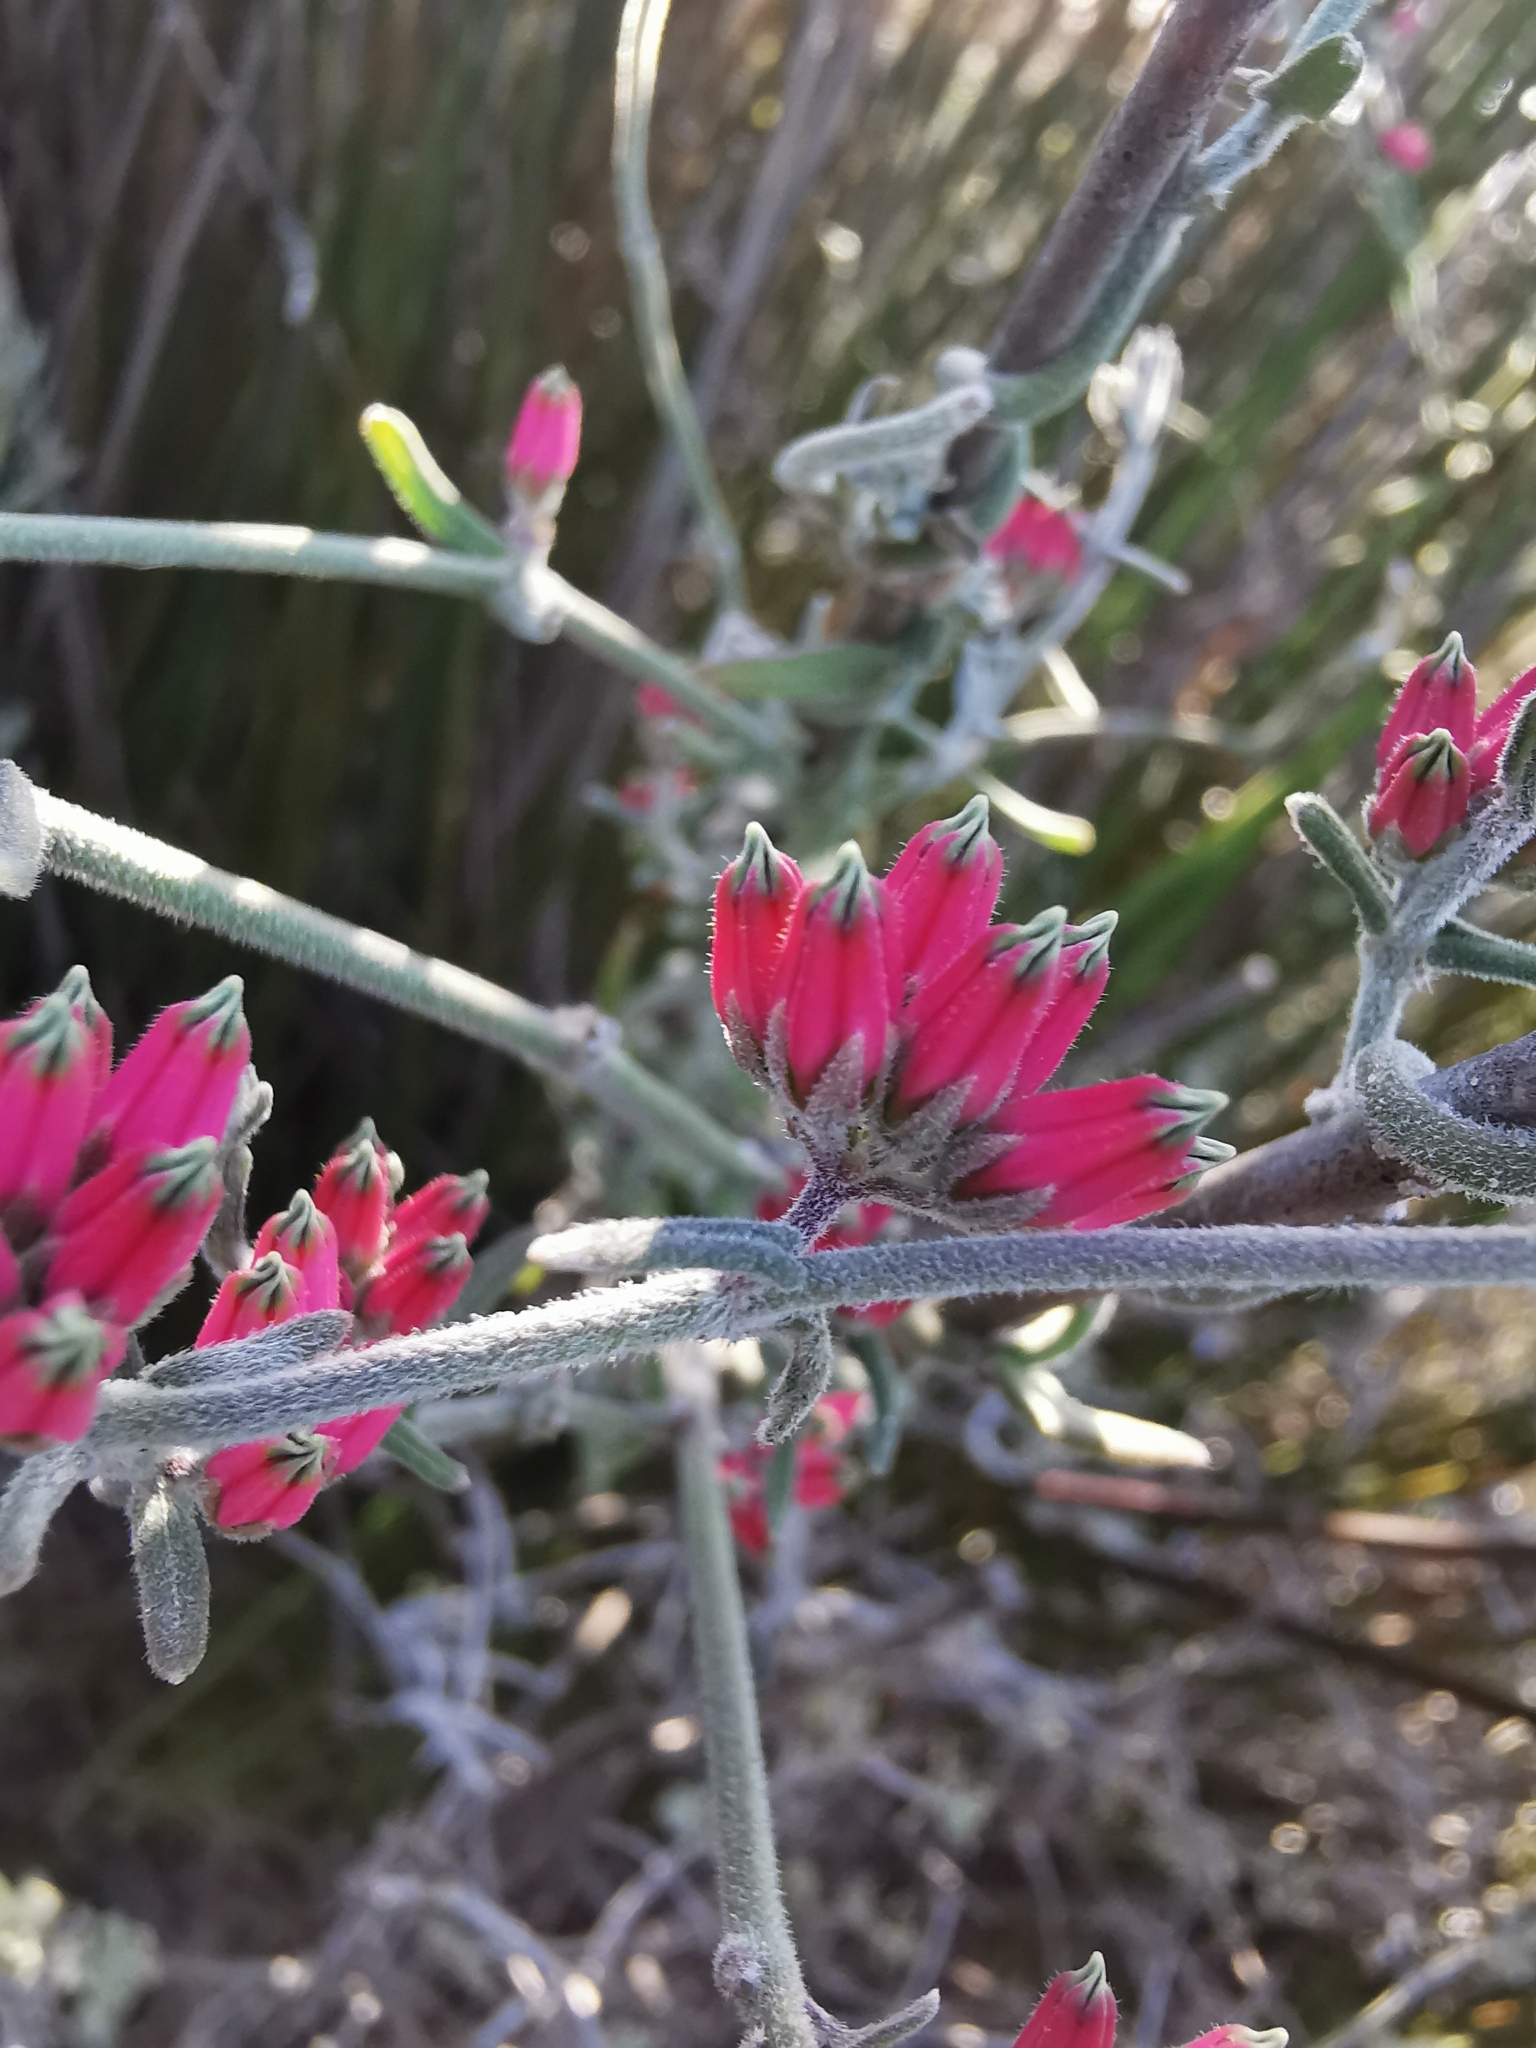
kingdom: Plantae
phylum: Tracheophyta
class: Magnoliopsida
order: Gentianales
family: Apocynaceae
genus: Microloma
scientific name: Microloma sagittatum
